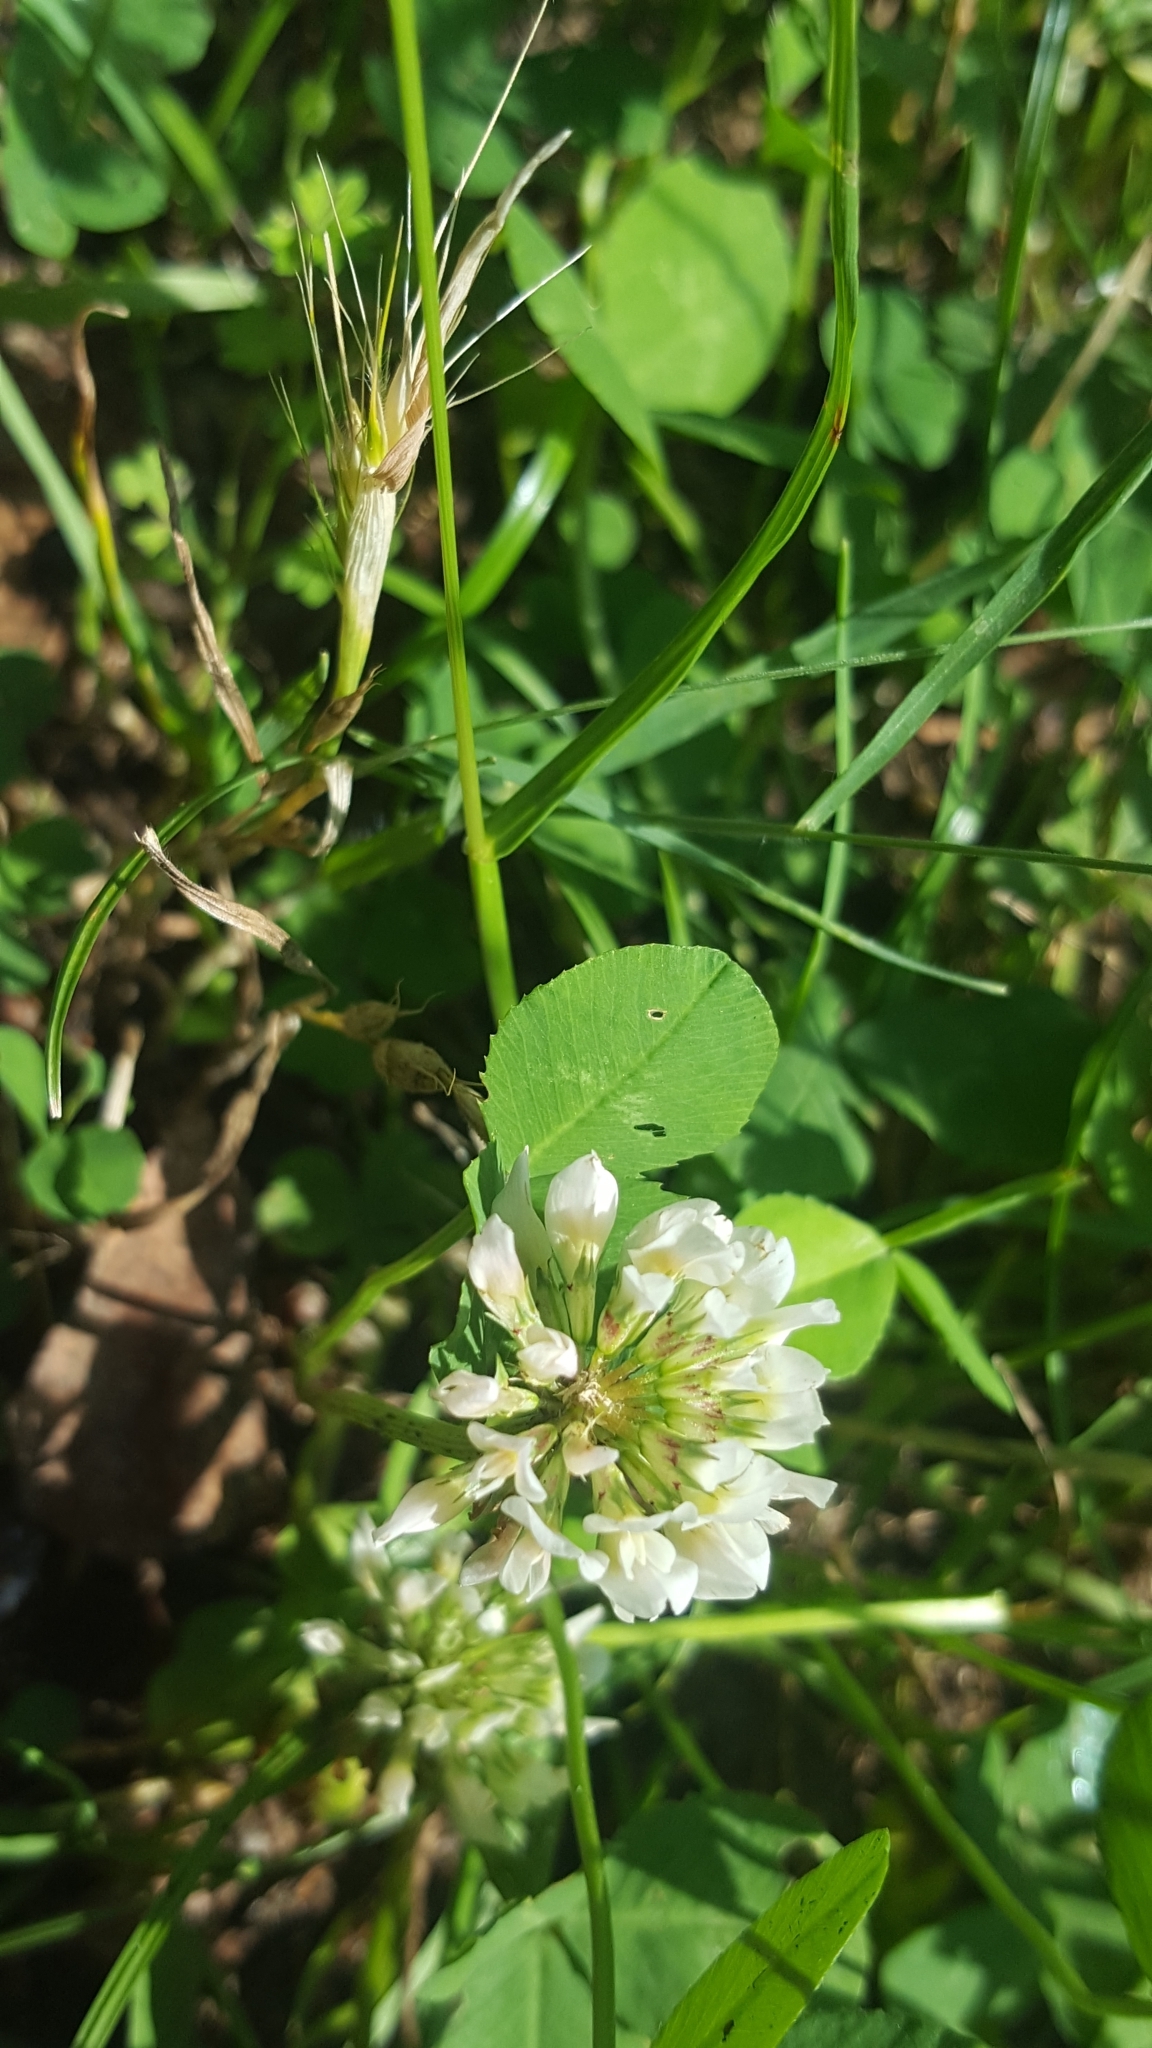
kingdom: Plantae
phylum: Tracheophyta
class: Magnoliopsida
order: Fabales
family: Fabaceae
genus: Trifolium
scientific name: Trifolium repens
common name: White clover
